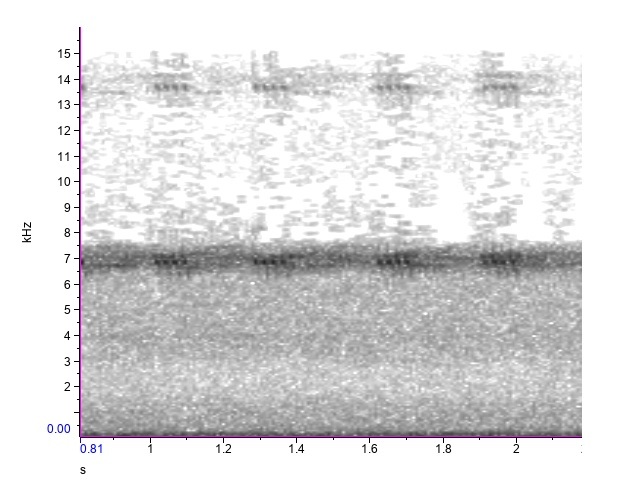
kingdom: Animalia
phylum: Arthropoda
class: Insecta
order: Orthoptera
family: Trigonidiidae
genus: Cyrtoxipha
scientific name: Cyrtoxipha columbiana
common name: Columbian trig
